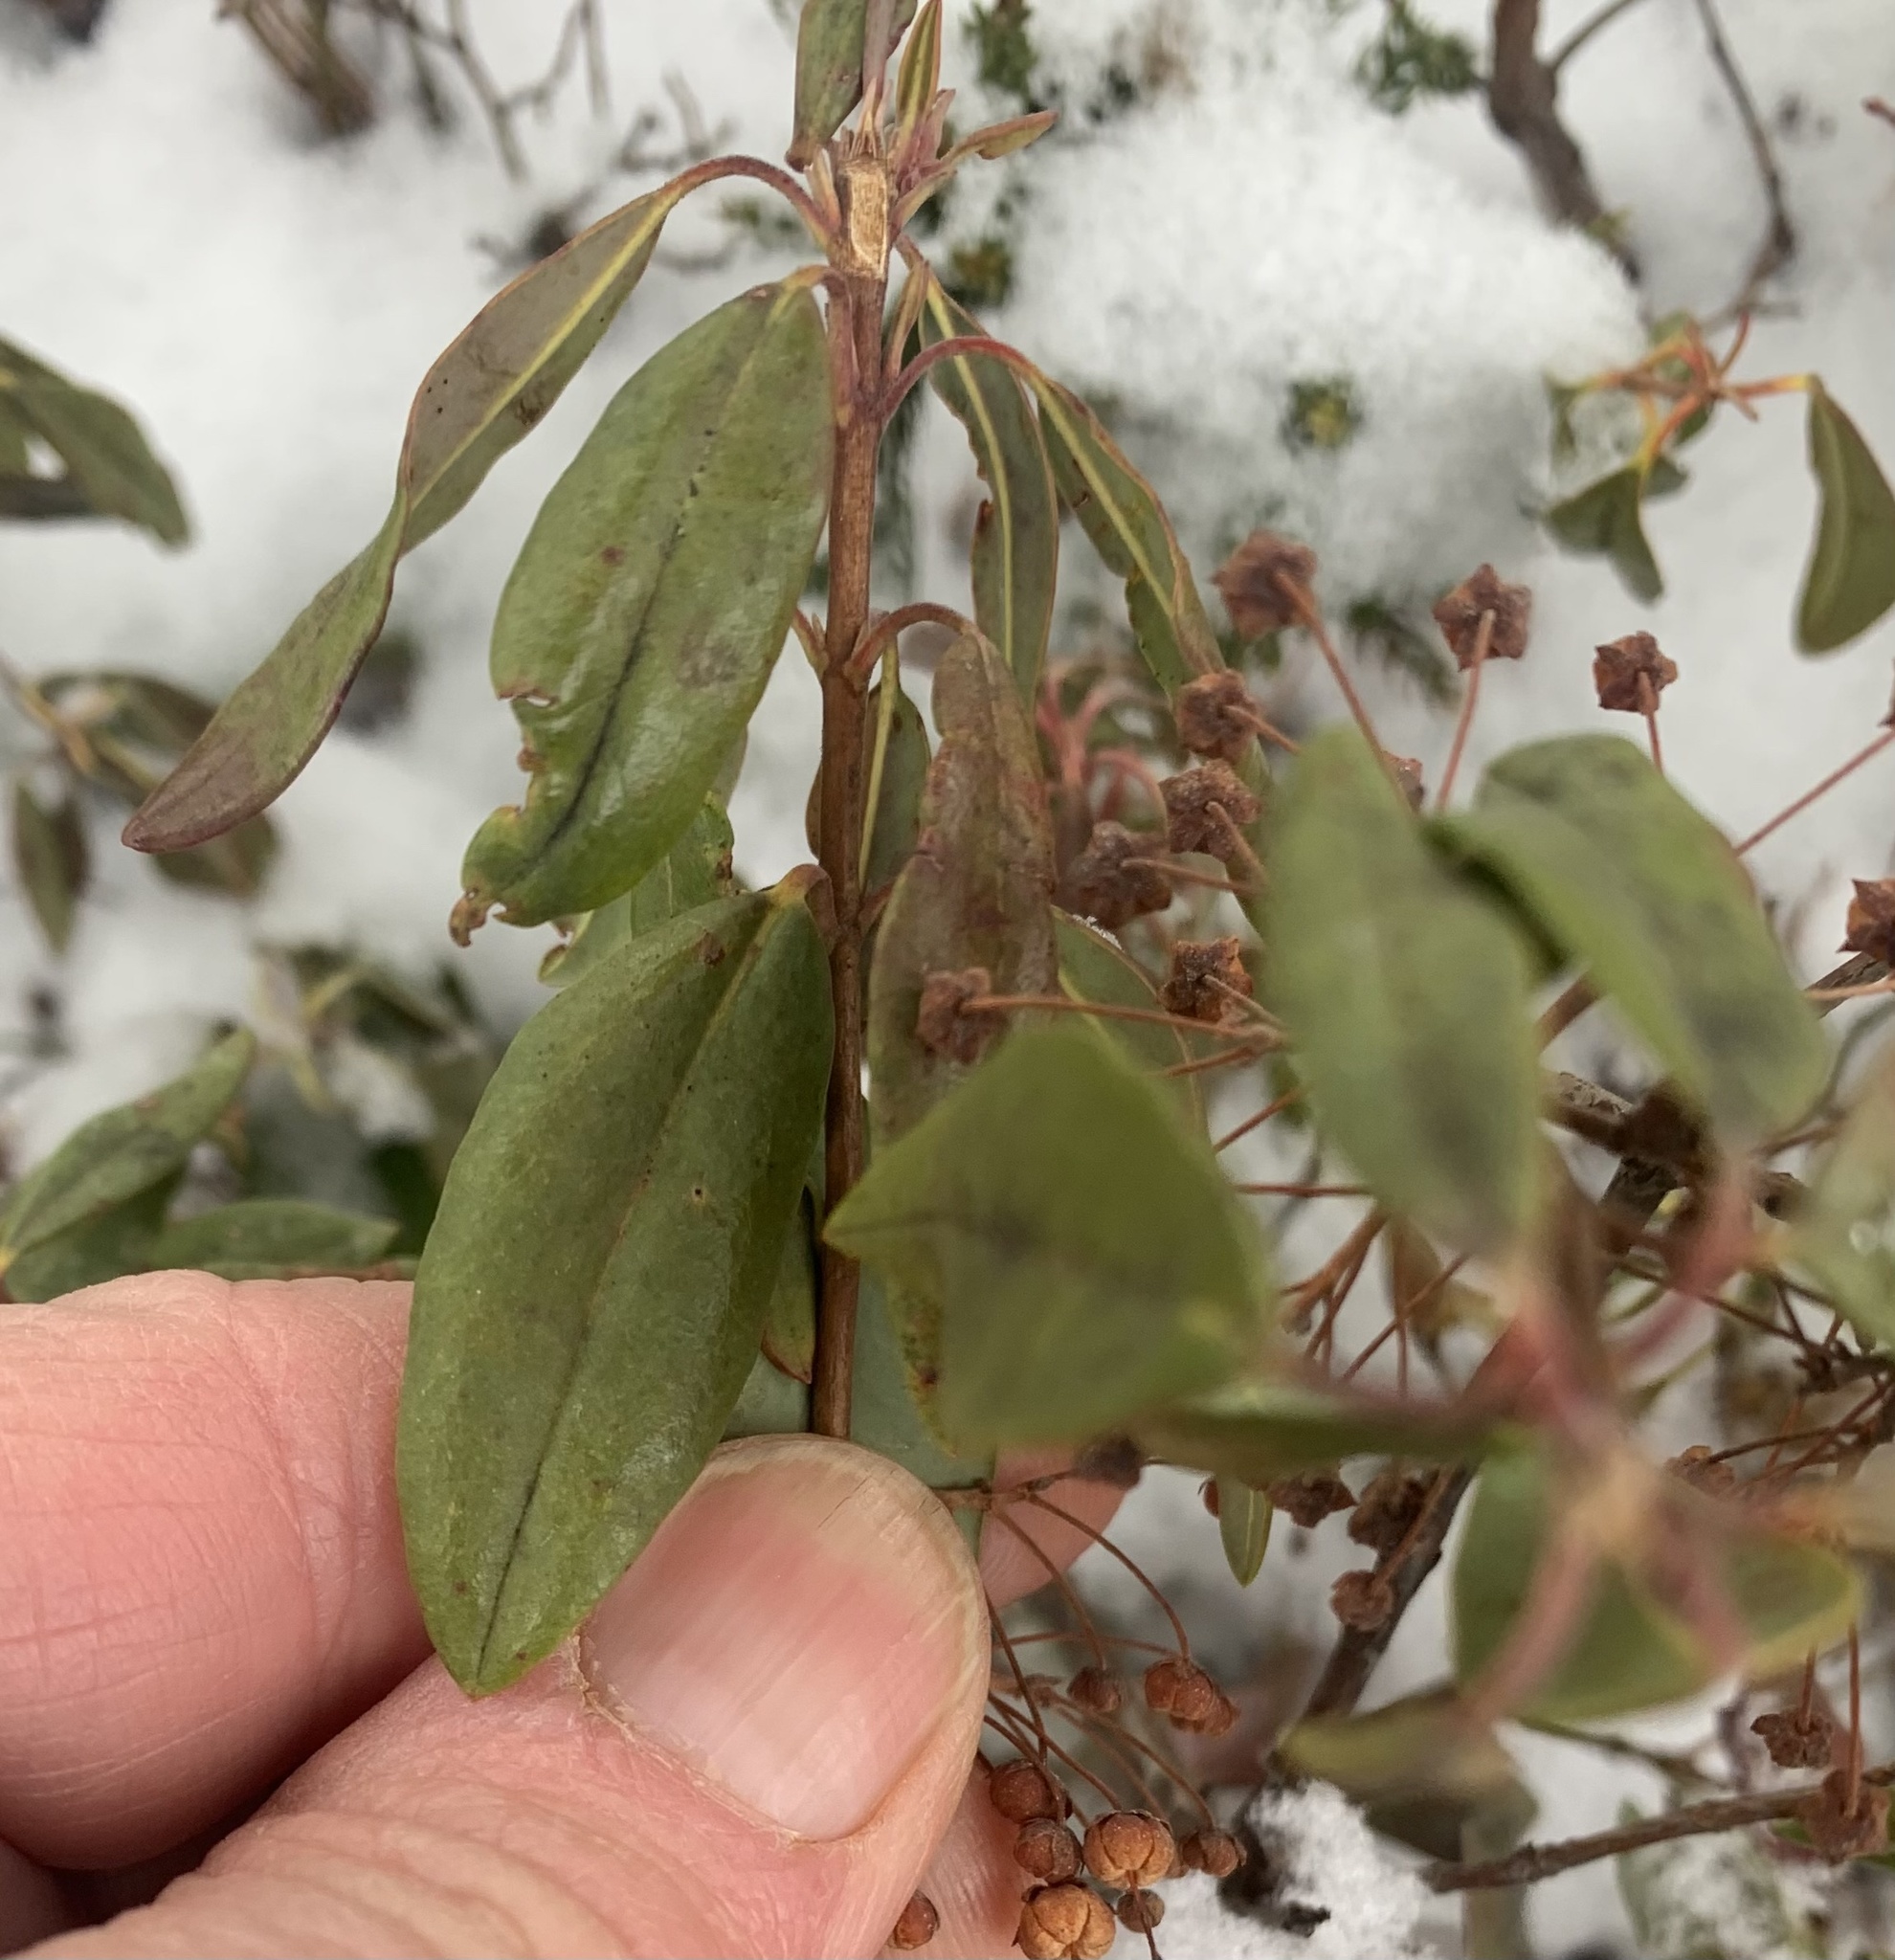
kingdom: Plantae
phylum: Tracheophyta
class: Magnoliopsida
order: Ericales
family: Ericaceae
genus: Kalmia
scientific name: Kalmia angustifolia
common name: Sheep-laurel
